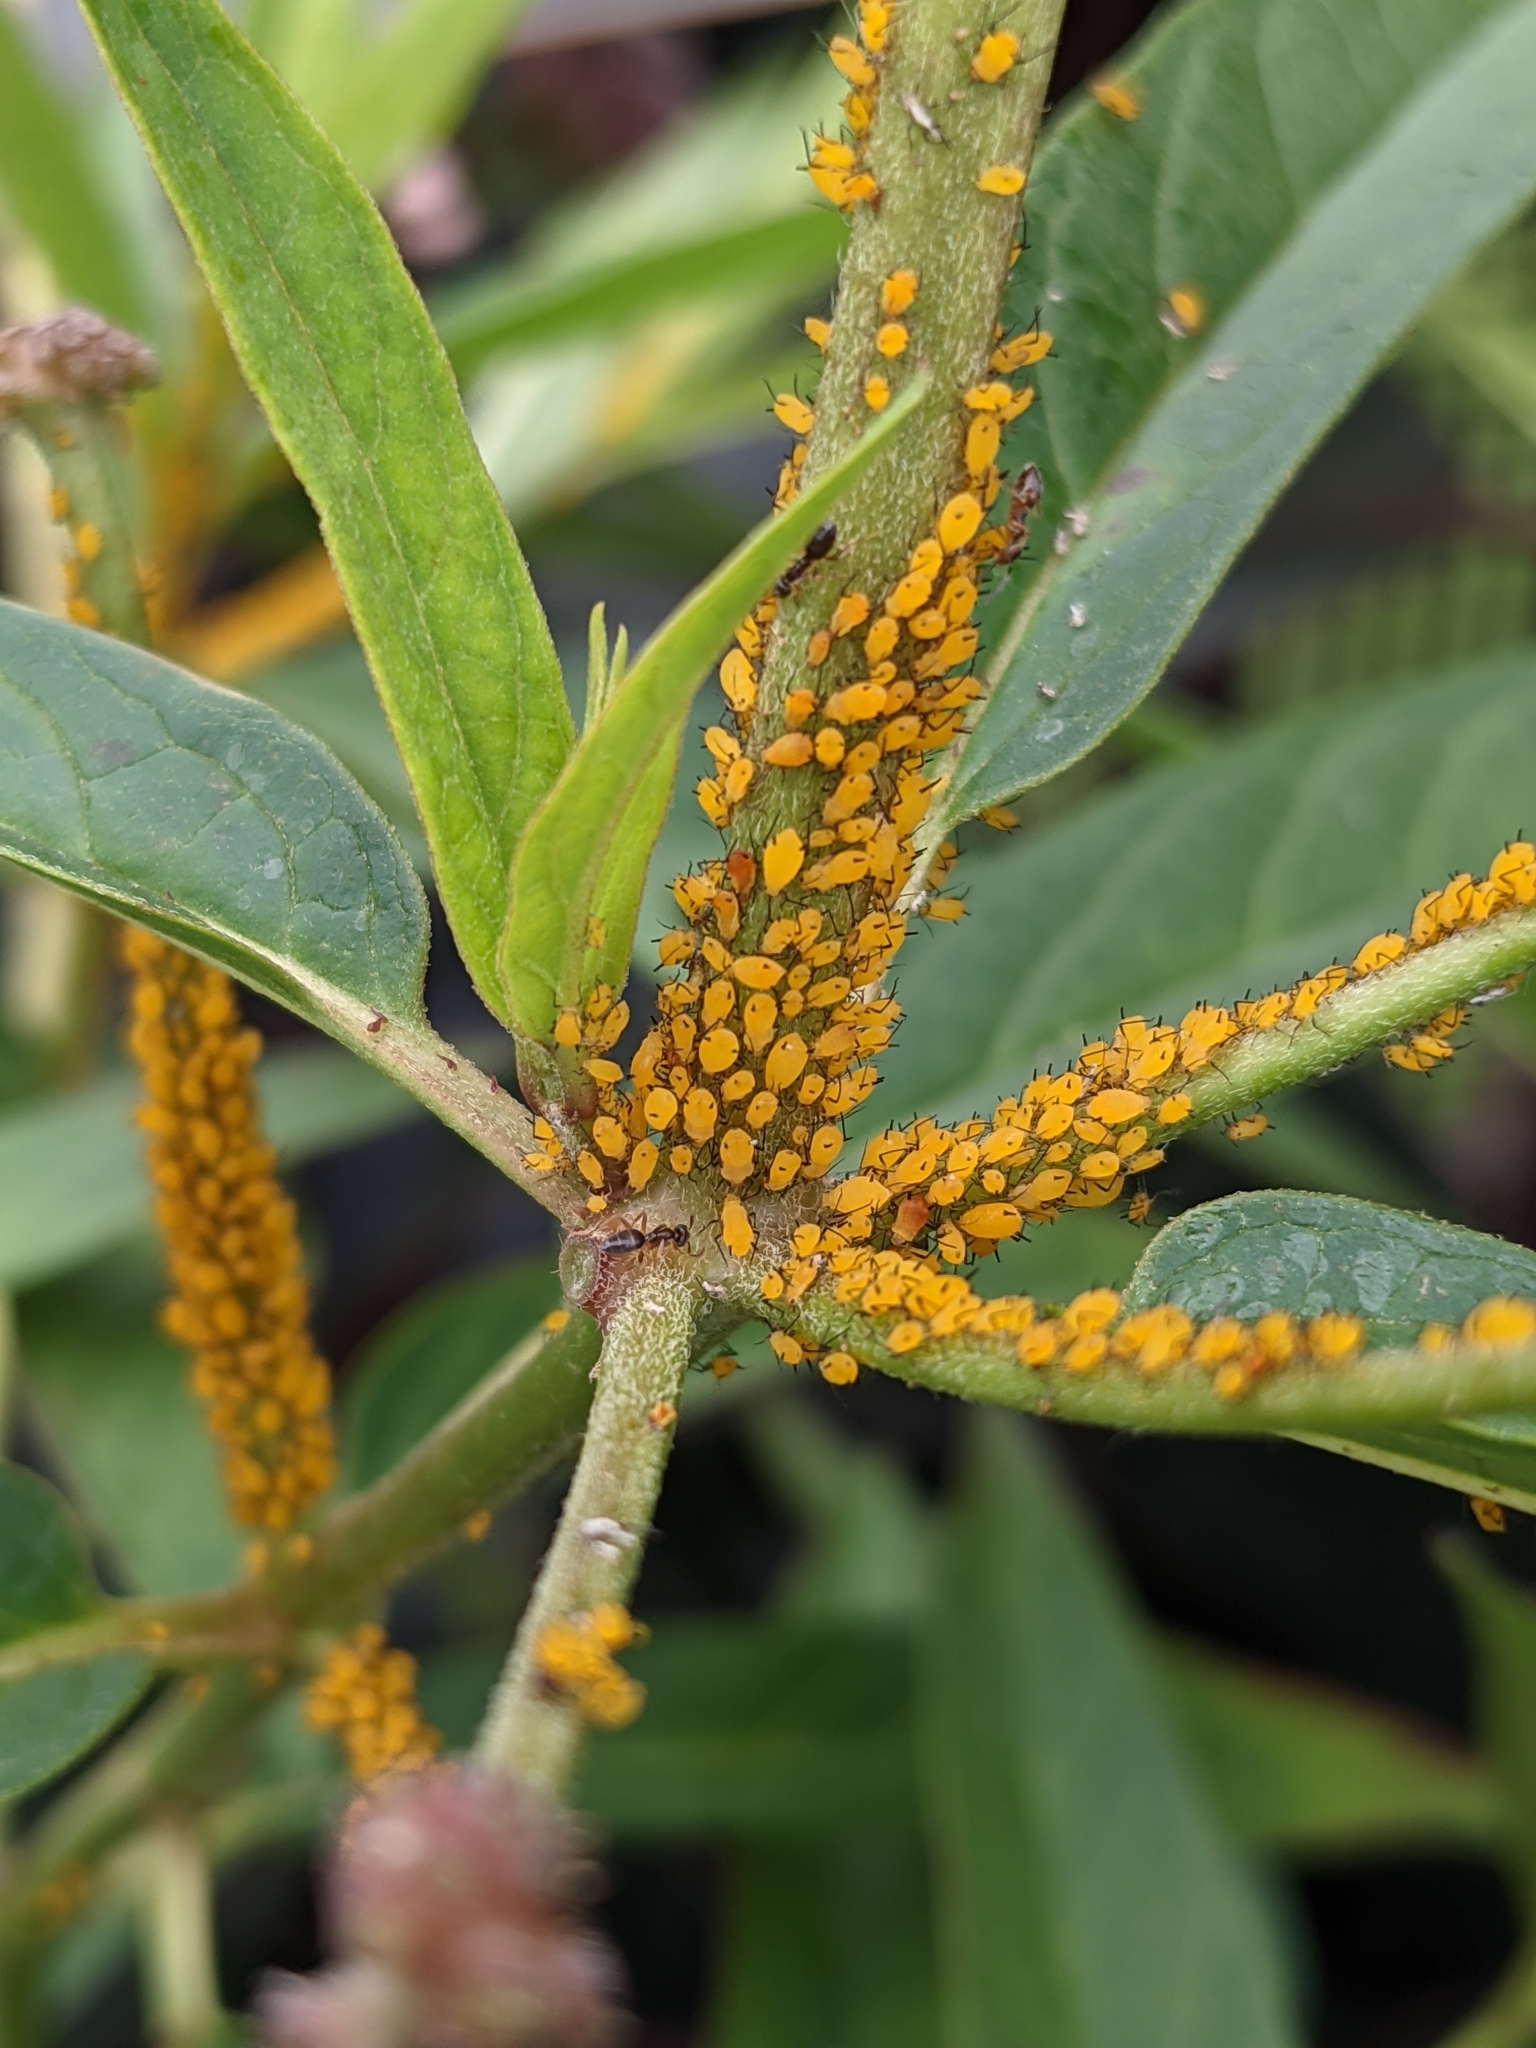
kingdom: Animalia
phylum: Arthropoda
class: Insecta
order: Hemiptera
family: Aphididae
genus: Aphis
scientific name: Aphis nerii
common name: Oleander aphid
